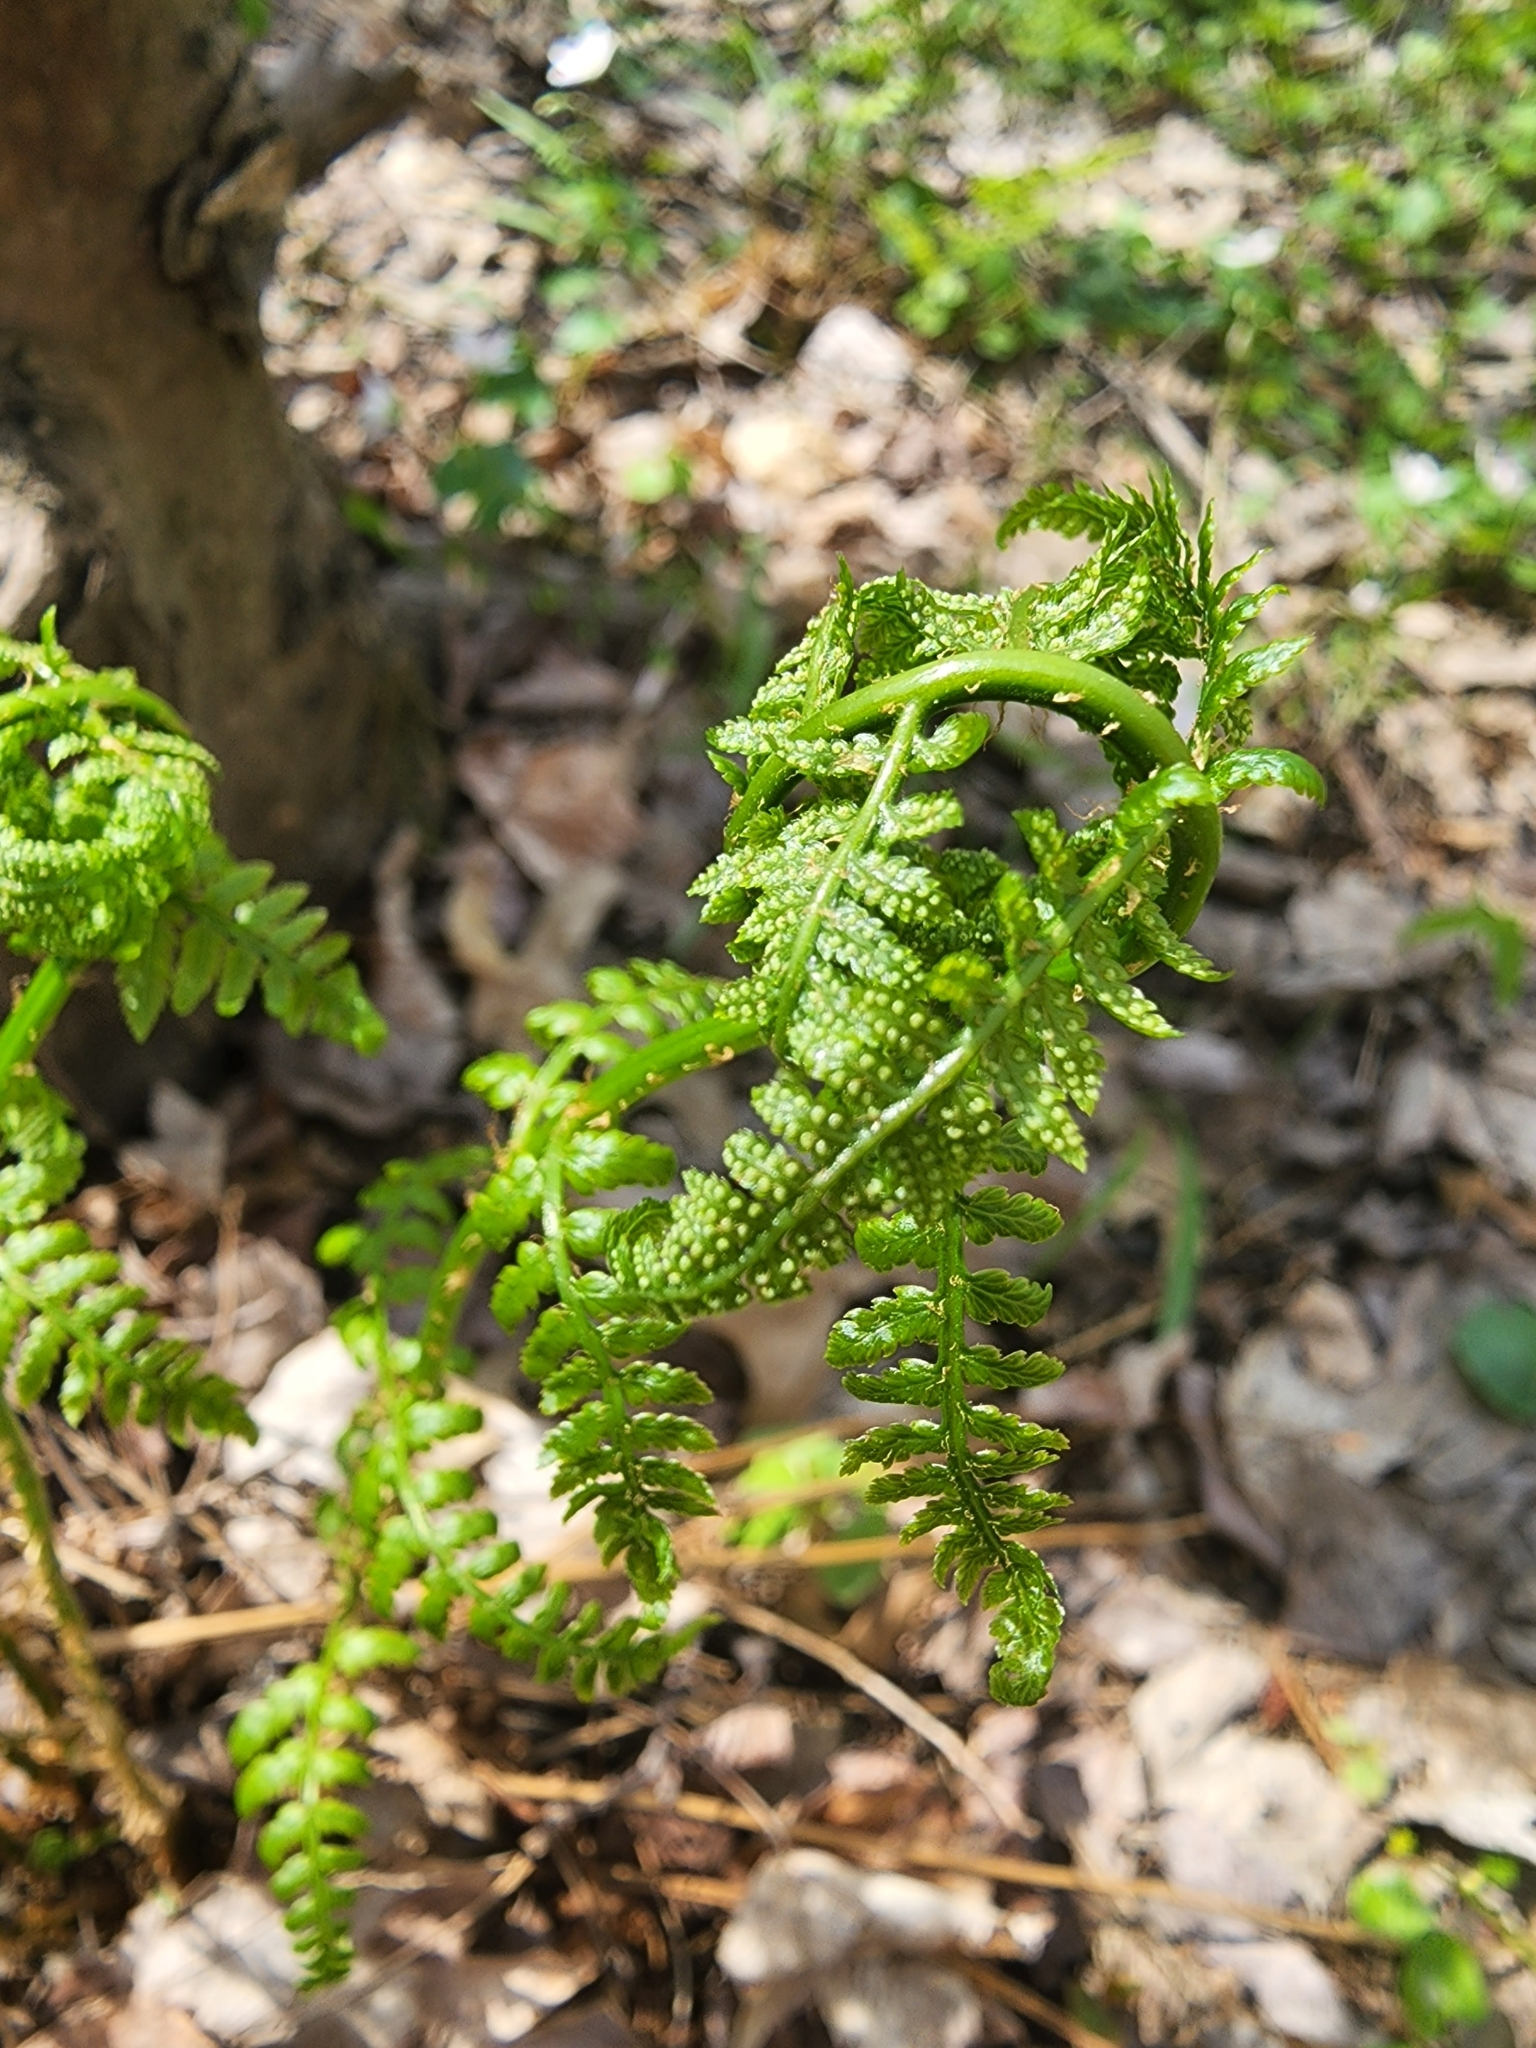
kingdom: Plantae
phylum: Tracheophyta
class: Polypodiopsida
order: Polypodiales
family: Dryopteridaceae
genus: Dryopteris
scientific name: Dryopteris carthusiana
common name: Narrow buckler-fern
